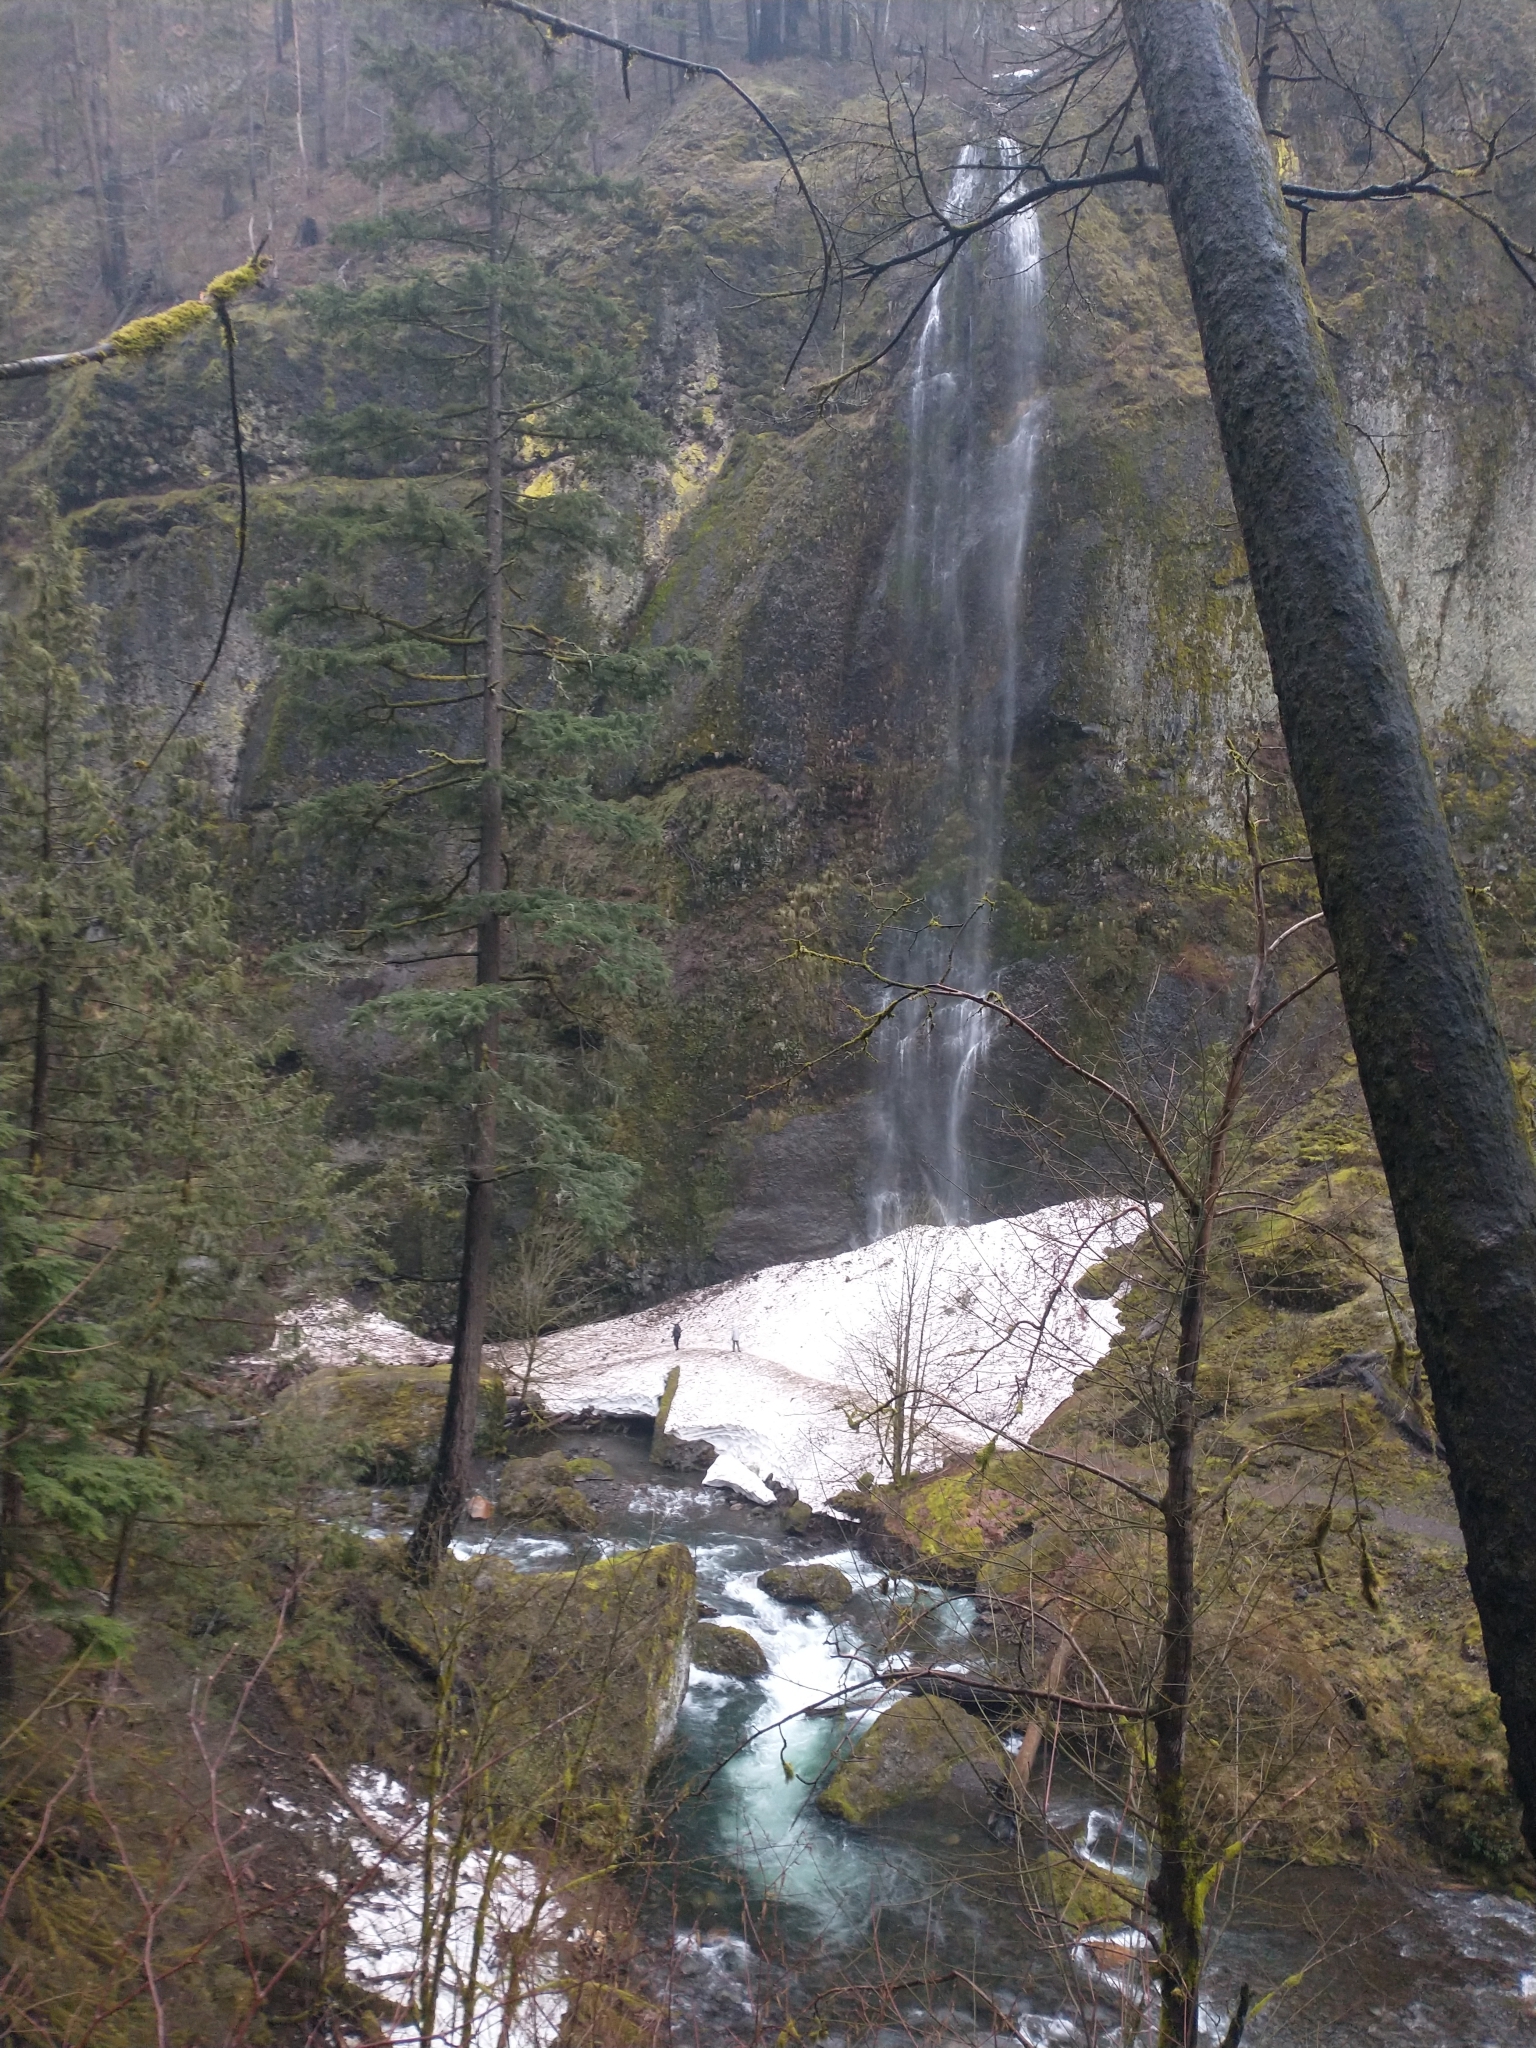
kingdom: Plantae
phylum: Tracheophyta
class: Pinopsida
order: Pinales
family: Pinaceae
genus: Pseudotsuga
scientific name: Pseudotsuga menziesii
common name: Douglas fir
